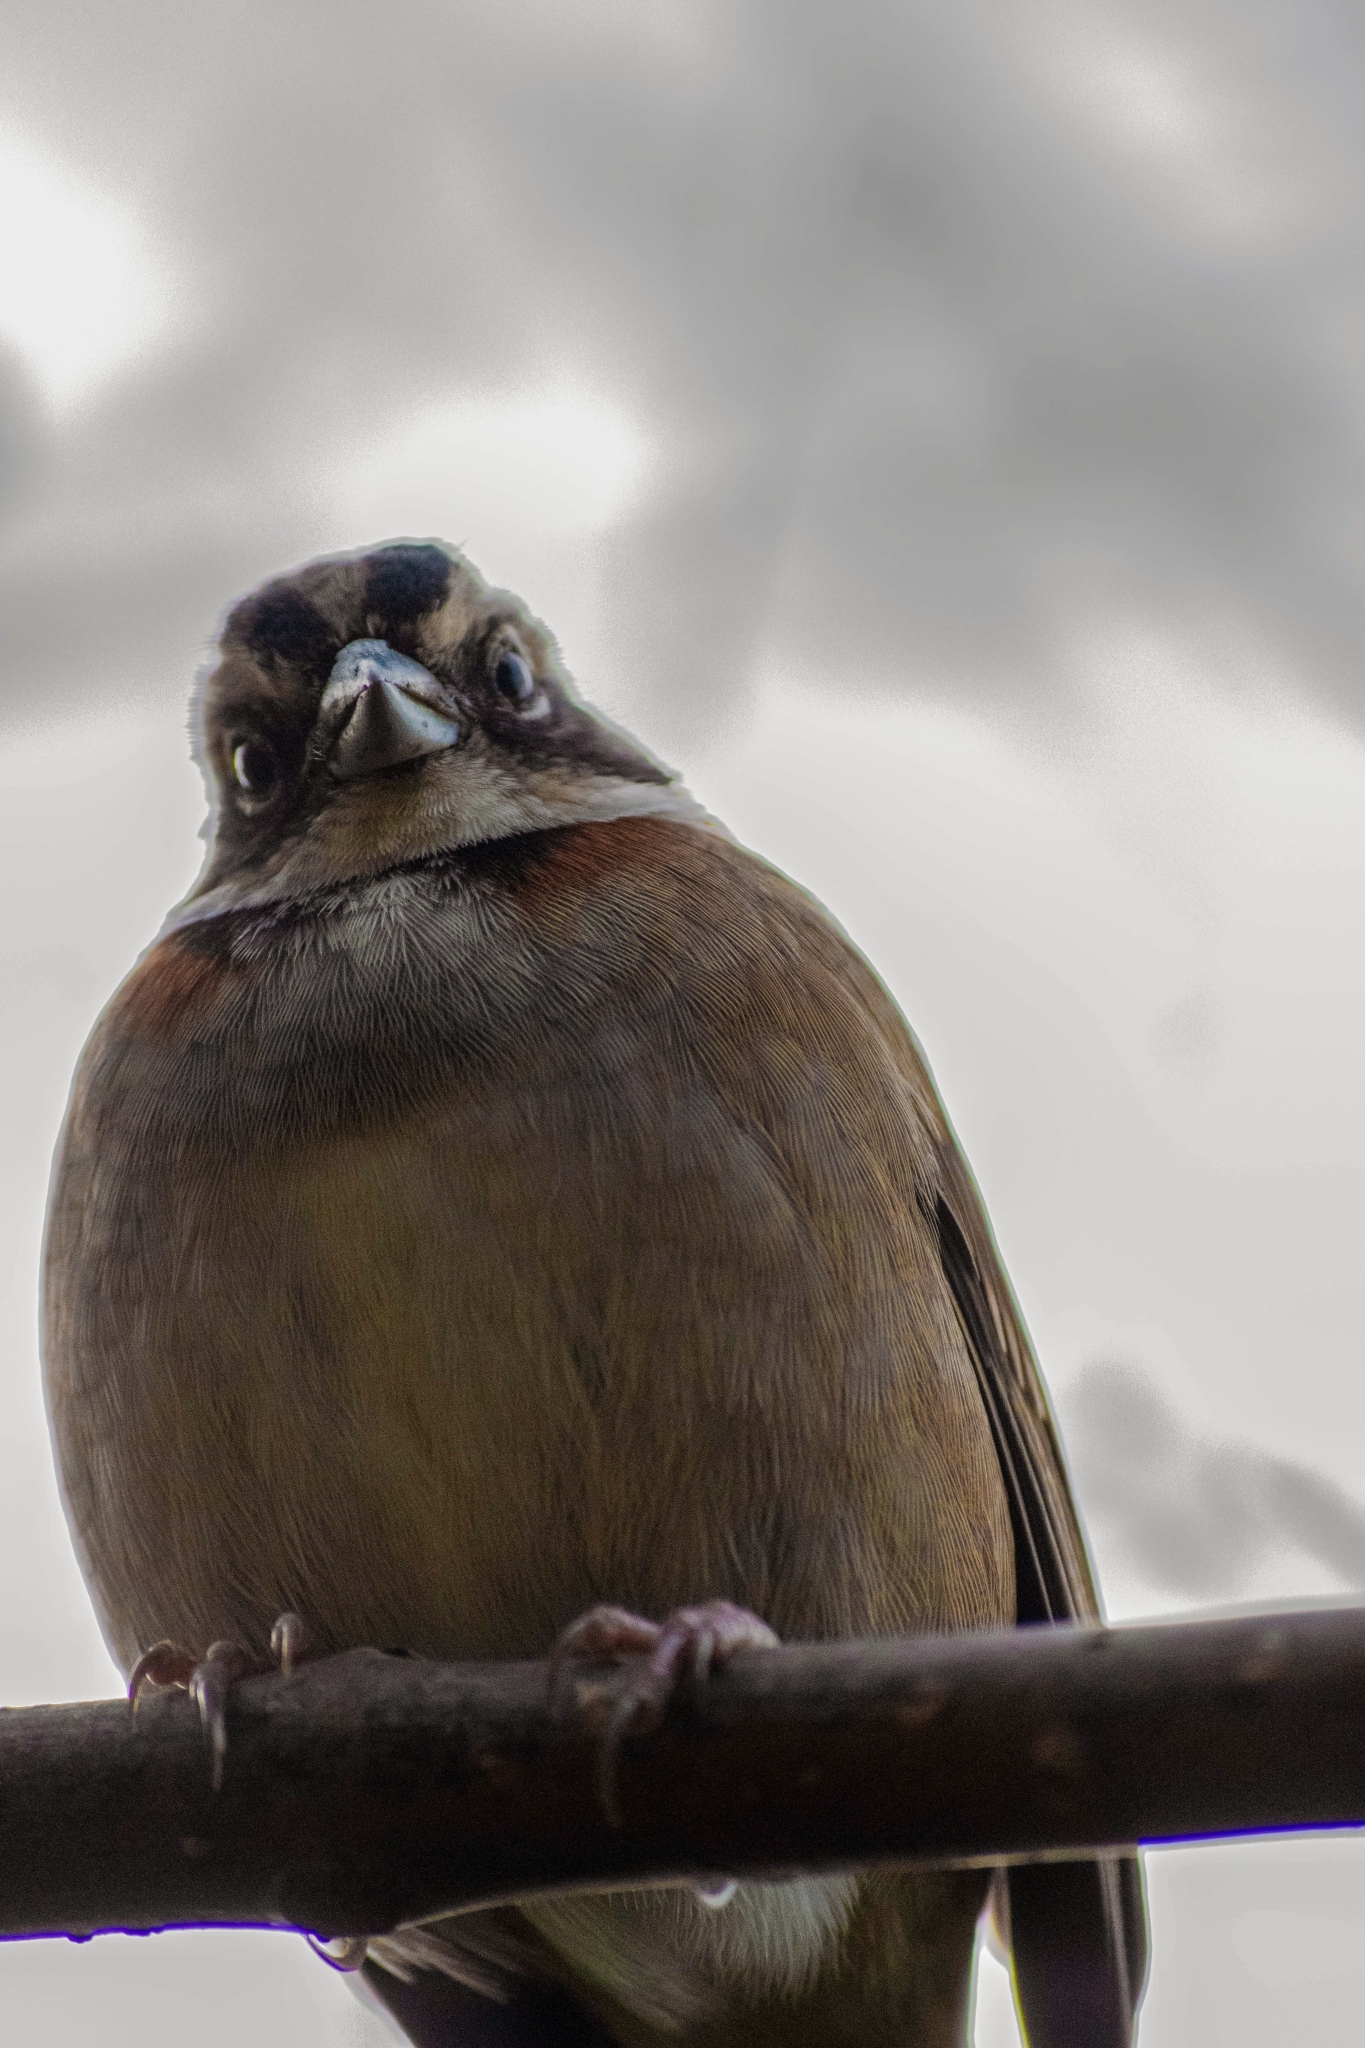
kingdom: Animalia
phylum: Chordata
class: Aves
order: Passeriformes
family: Passerellidae
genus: Zonotrichia
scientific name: Zonotrichia capensis
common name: Rufous-collared sparrow
